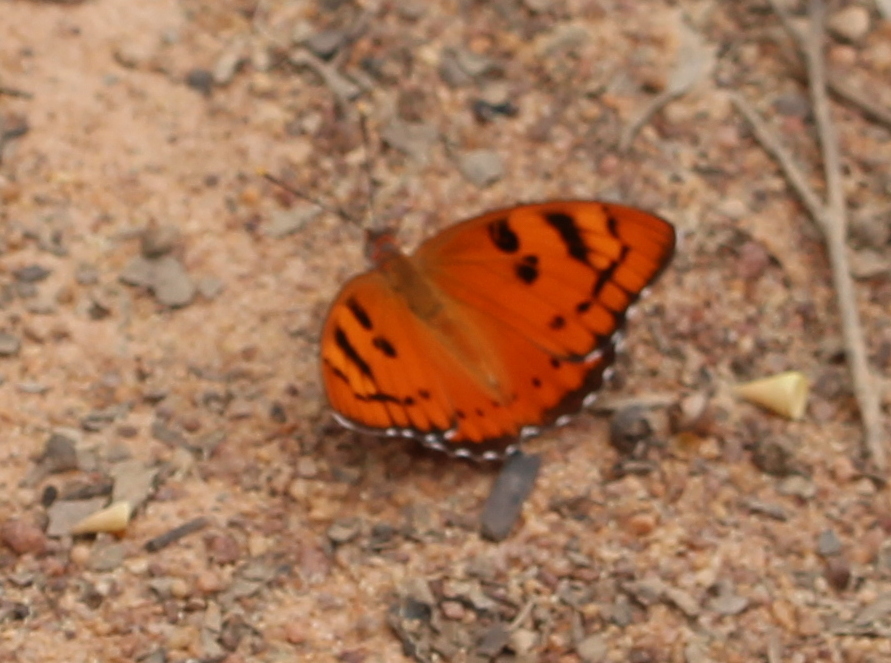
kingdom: Animalia
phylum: Arthropoda
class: Insecta
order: Lepidoptera
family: Nymphalidae
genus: Euthalia
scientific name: Euthalia nais
